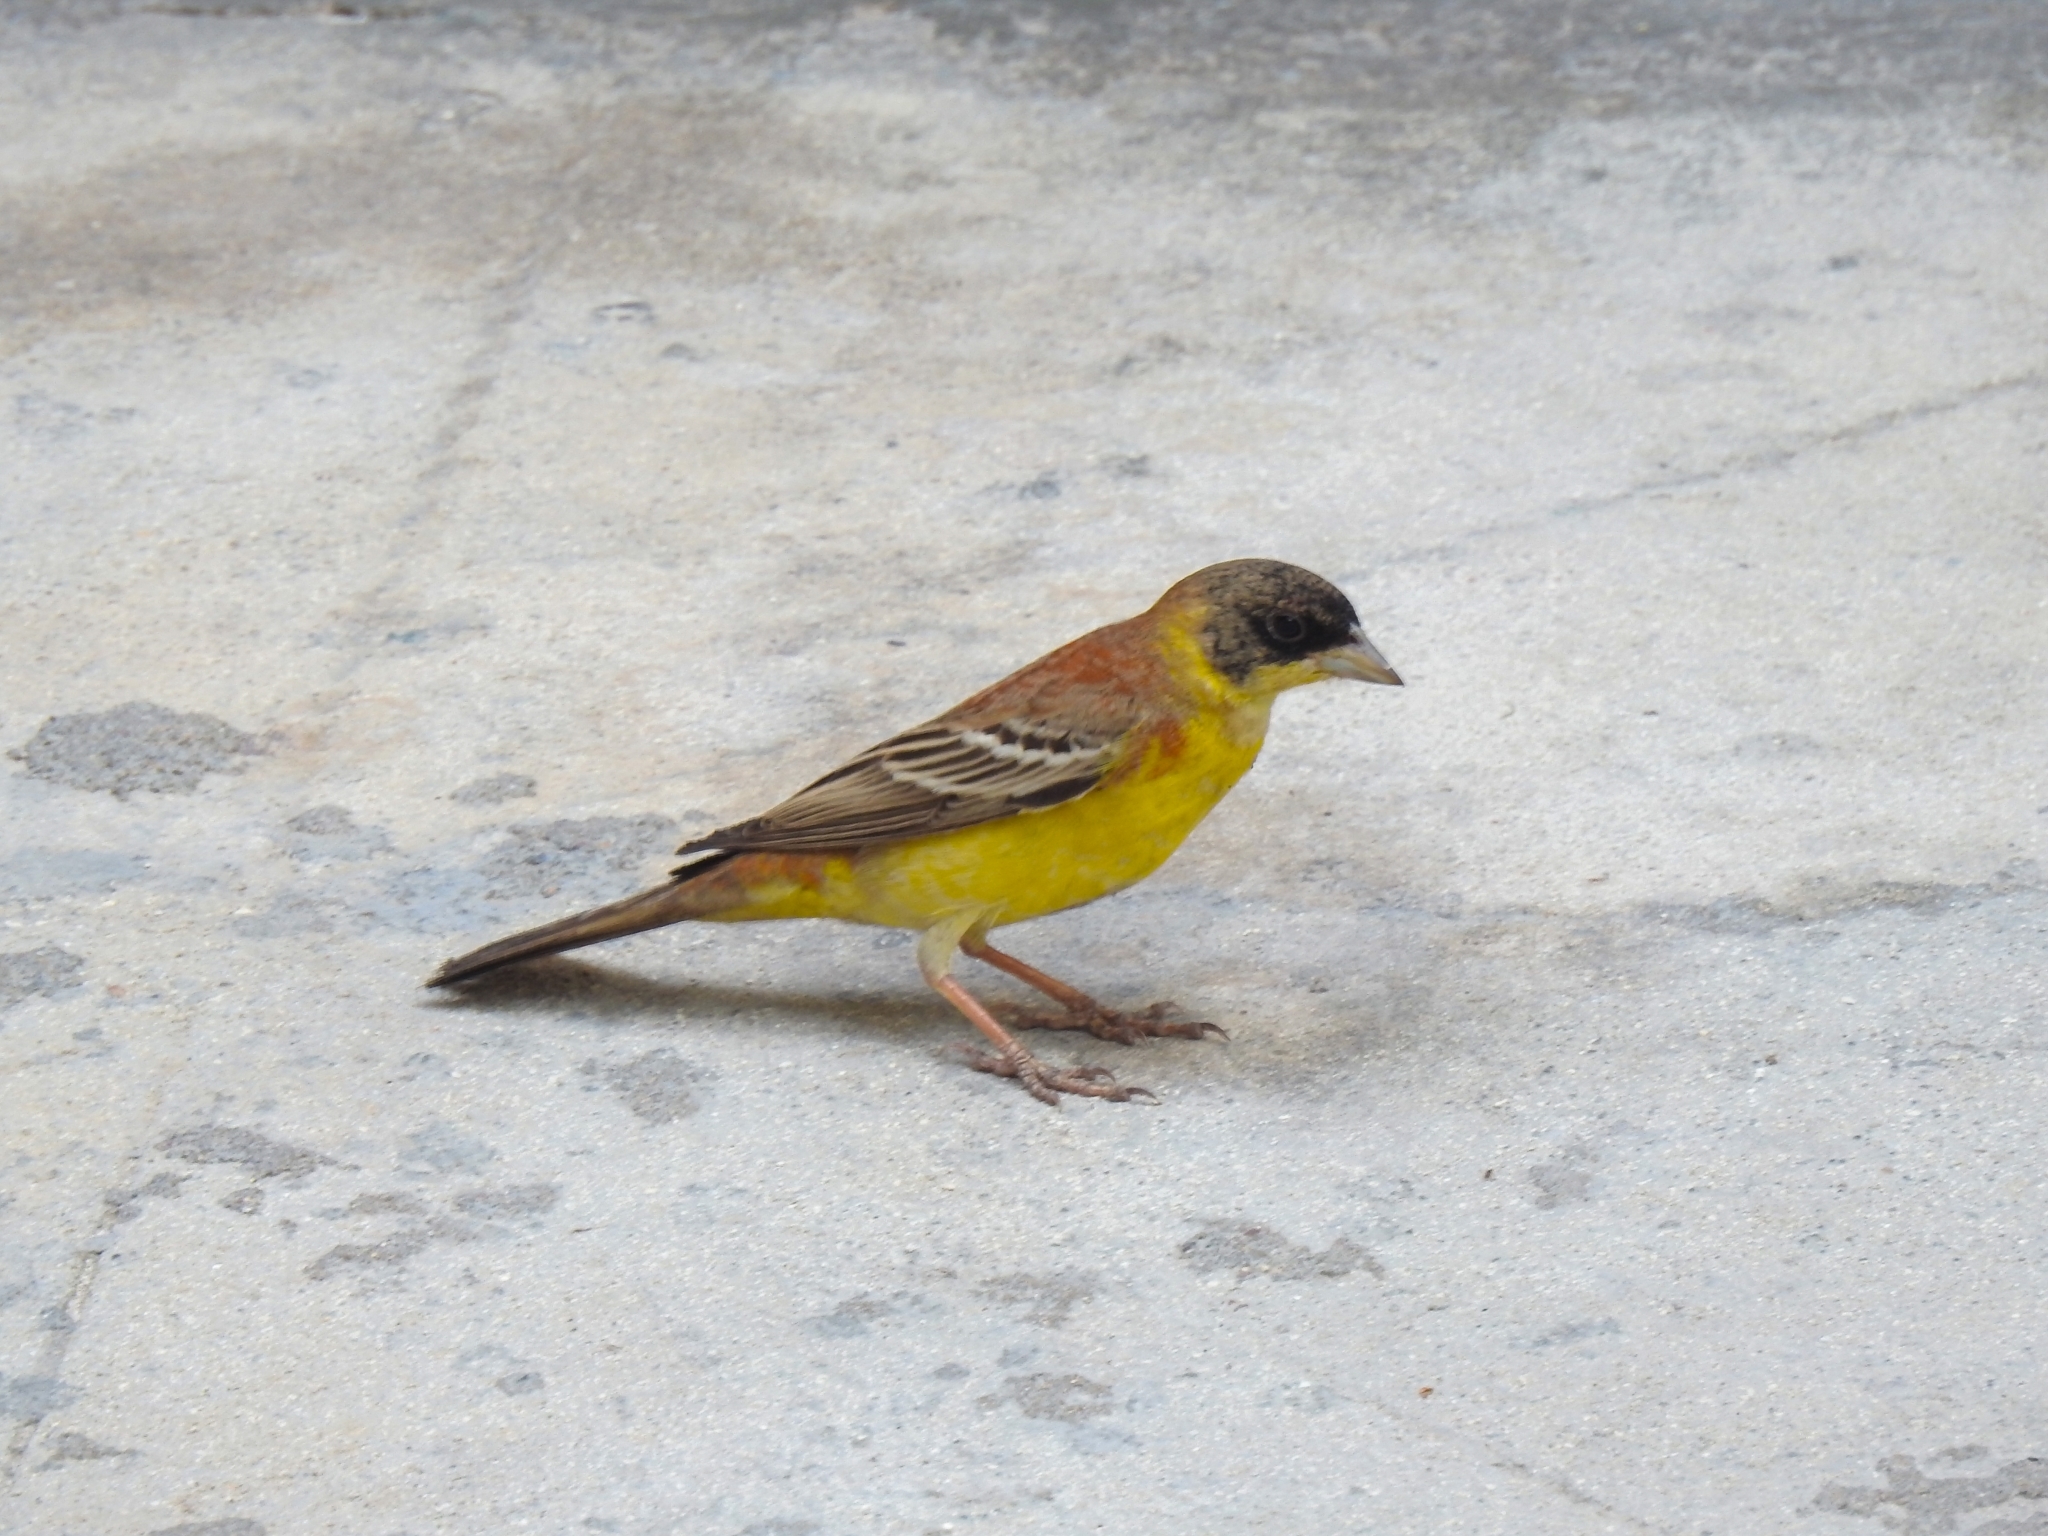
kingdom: Animalia
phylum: Chordata
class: Aves
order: Passeriformes
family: Emberizidae
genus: Emberiza
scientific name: Emberiza melanocephala
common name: Black-headed bunting
